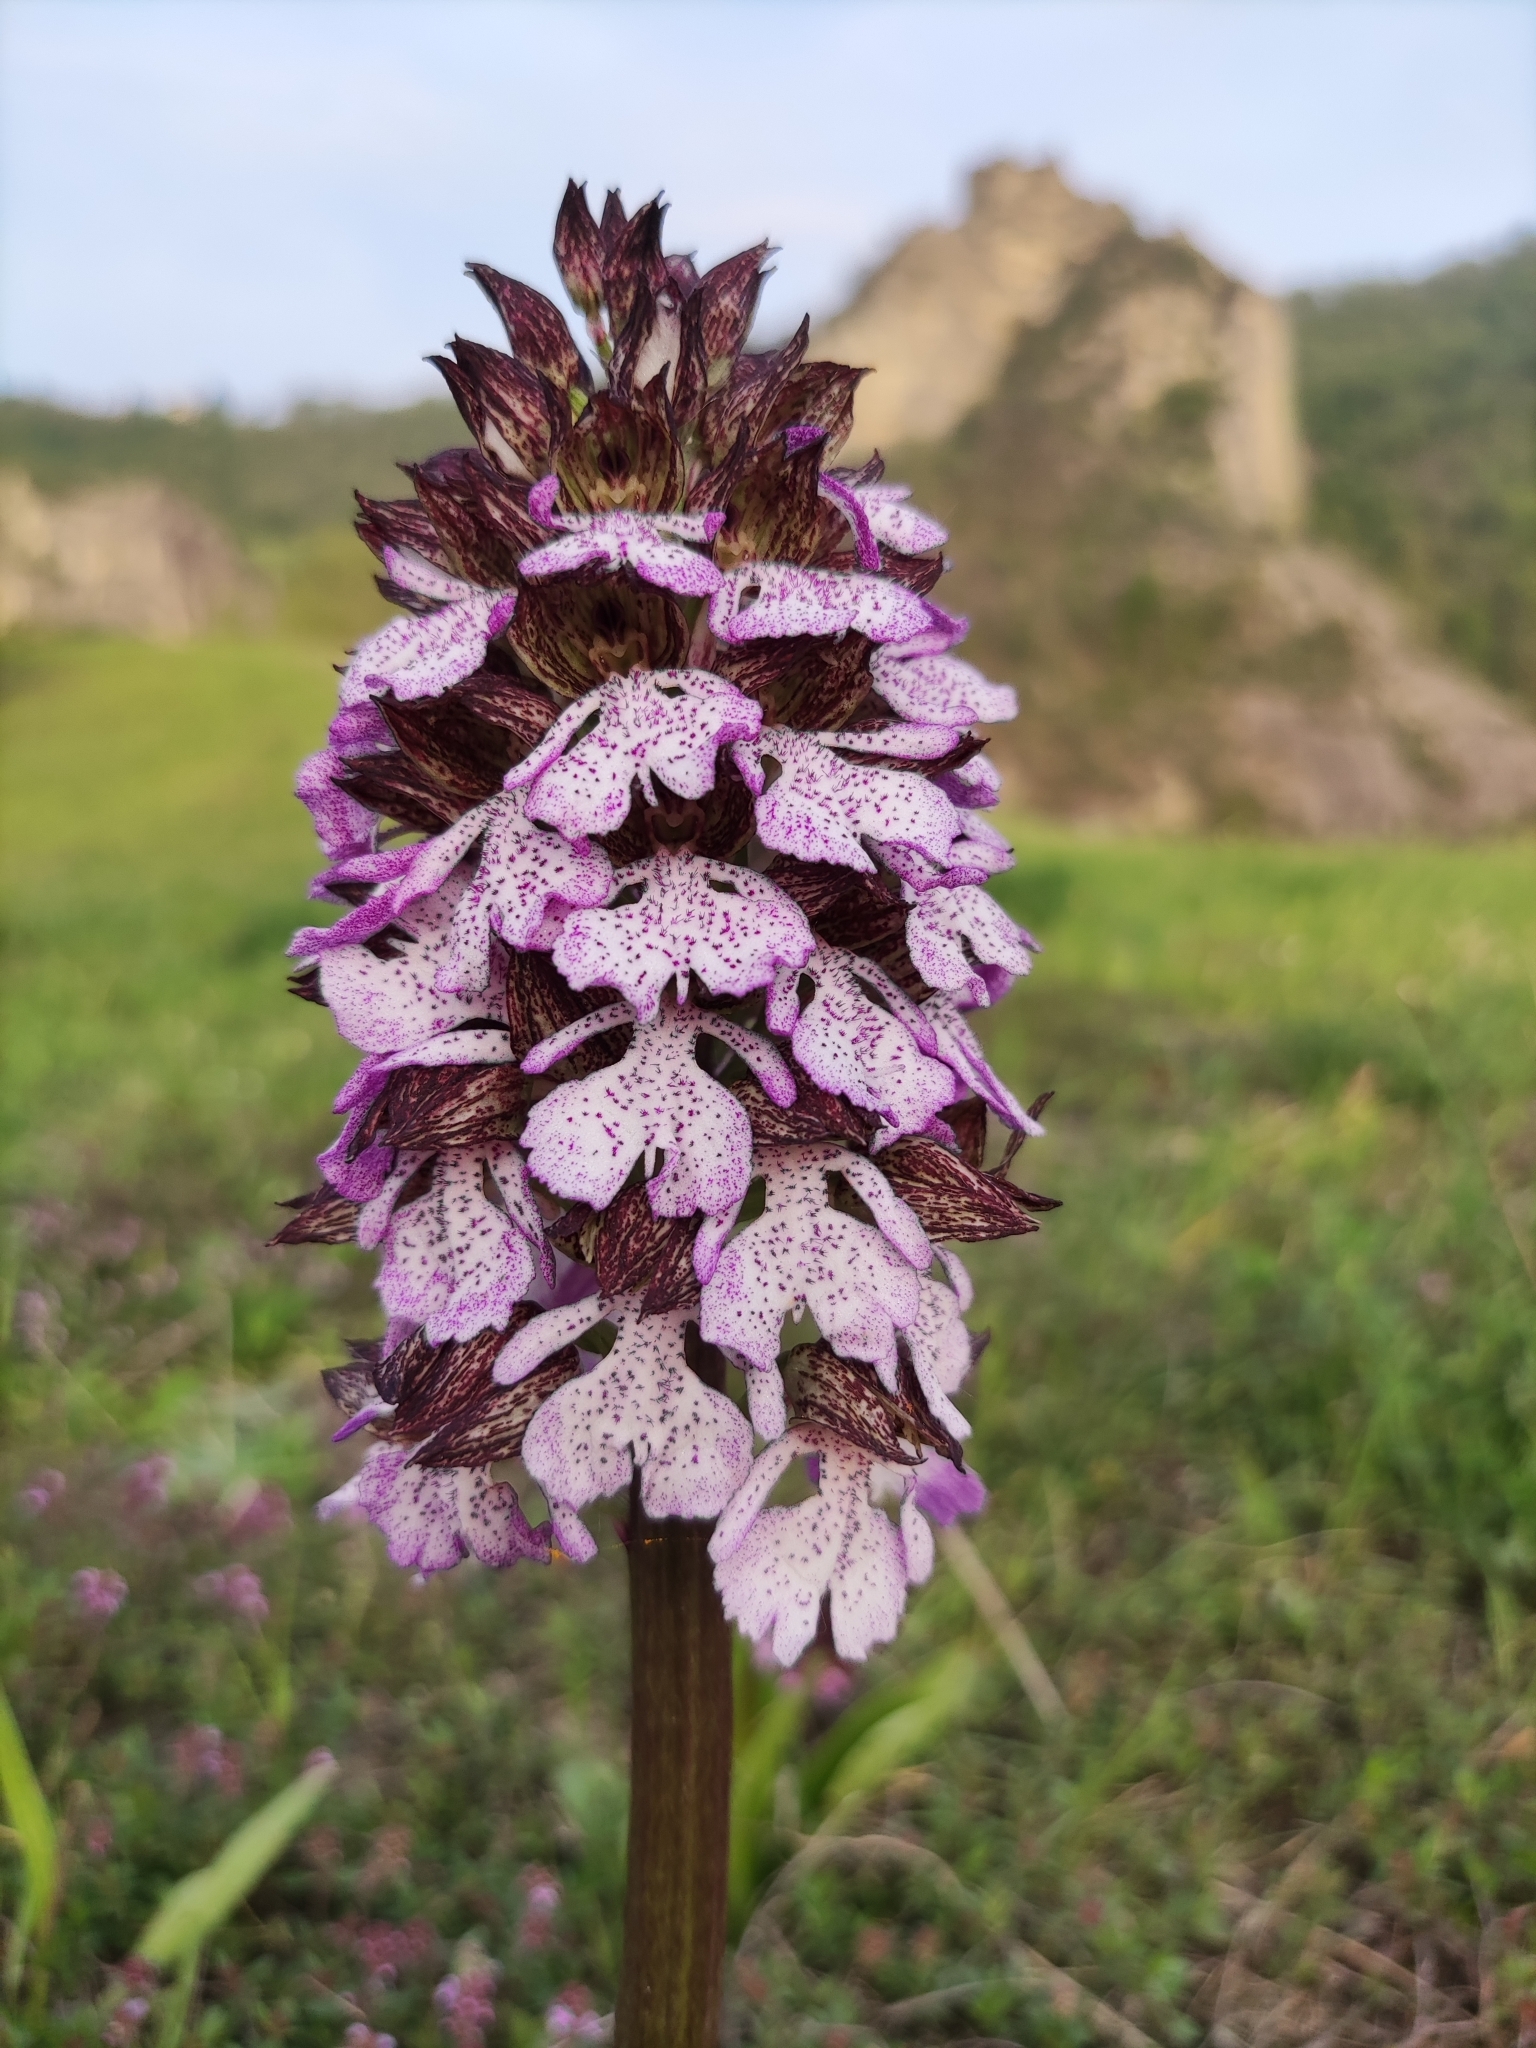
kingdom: Plantae
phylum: Tracheophyta
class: Liliopsida
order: Asparagales
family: Orchidaceae
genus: Orchis
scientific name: Orchis purpurea
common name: Lady orchid
